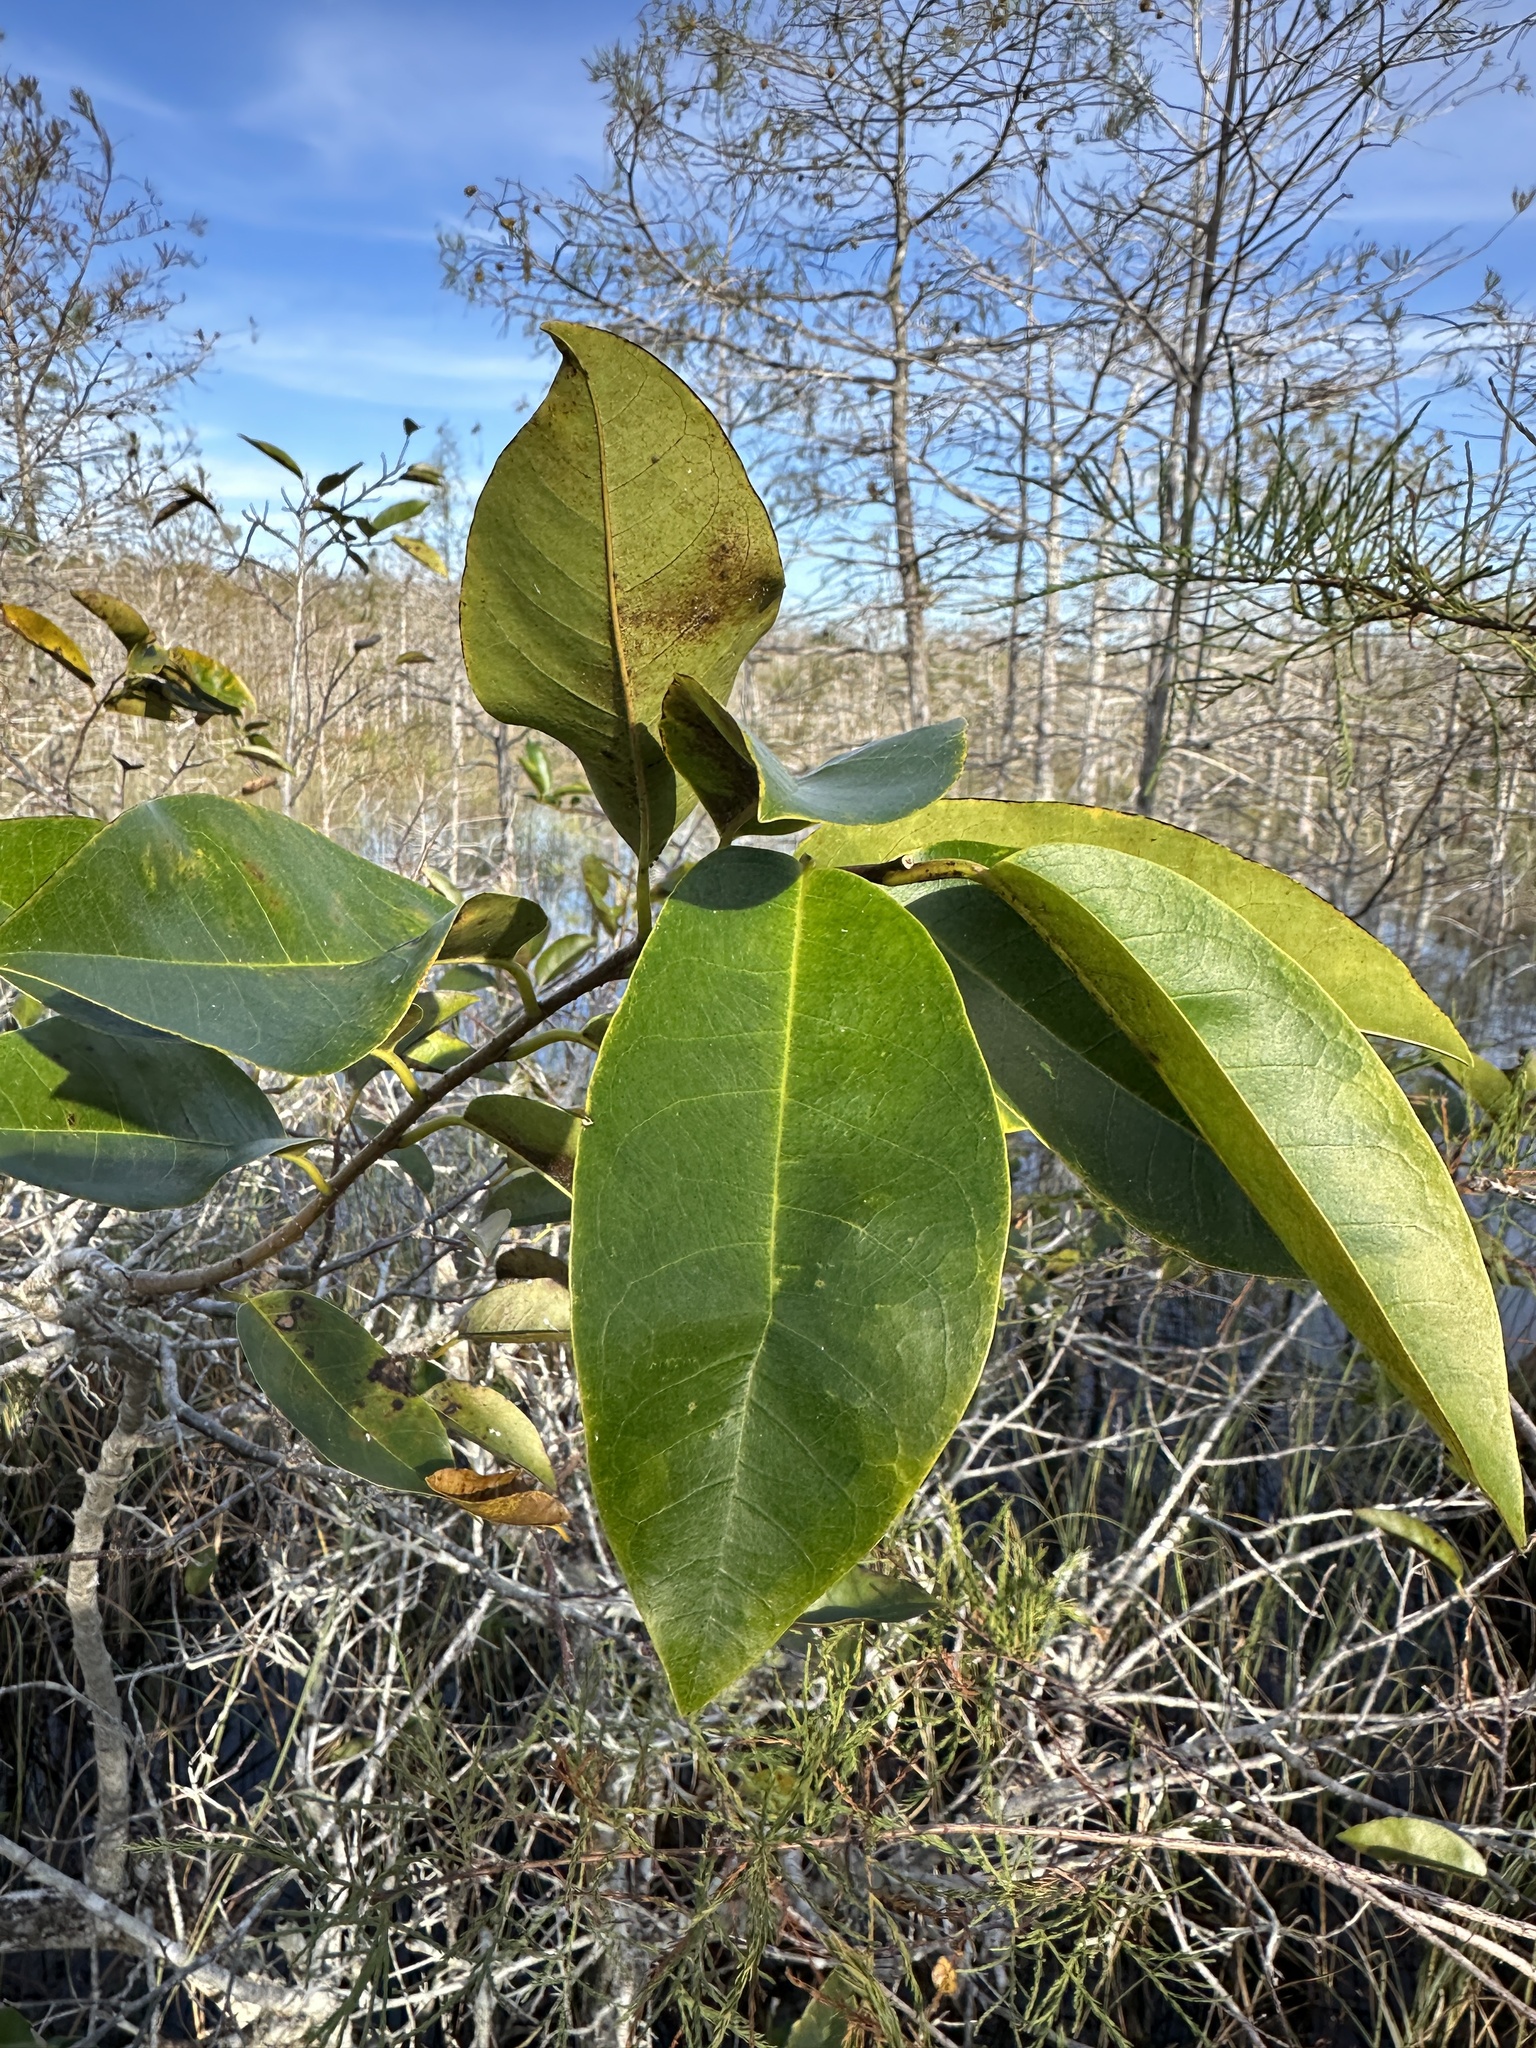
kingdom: Plantae
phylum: Tracheophyta
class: Magnoliopsida
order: Magnoliales
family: Annonaceae
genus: Annona
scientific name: Annona glabra
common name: Monkey apple
